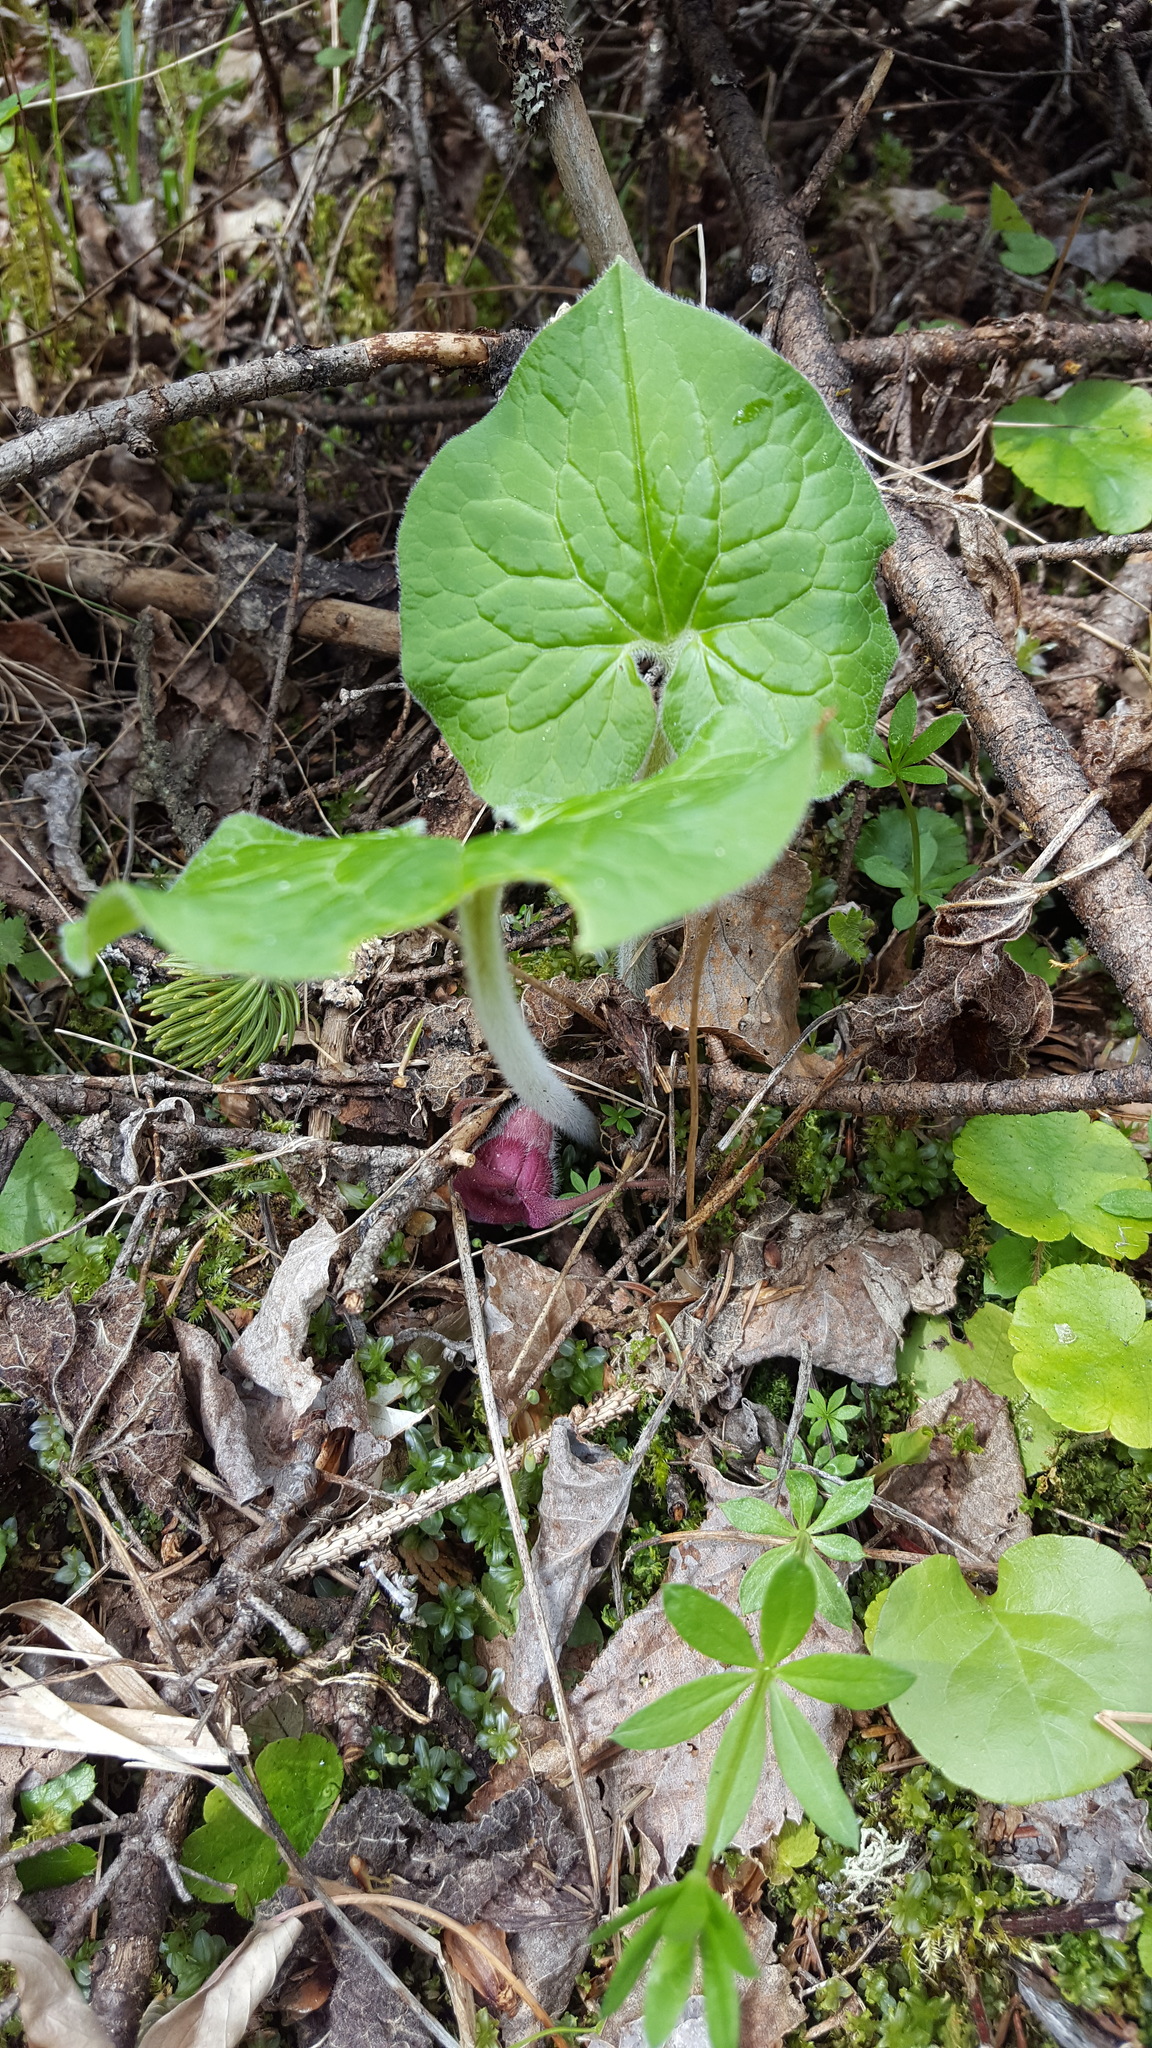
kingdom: Plantae
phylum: Tracheophyta
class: Magnoliopsida
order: Piperales
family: Aristolochiaceae
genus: Asarum
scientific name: Asarum canadense
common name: Wild ginger
